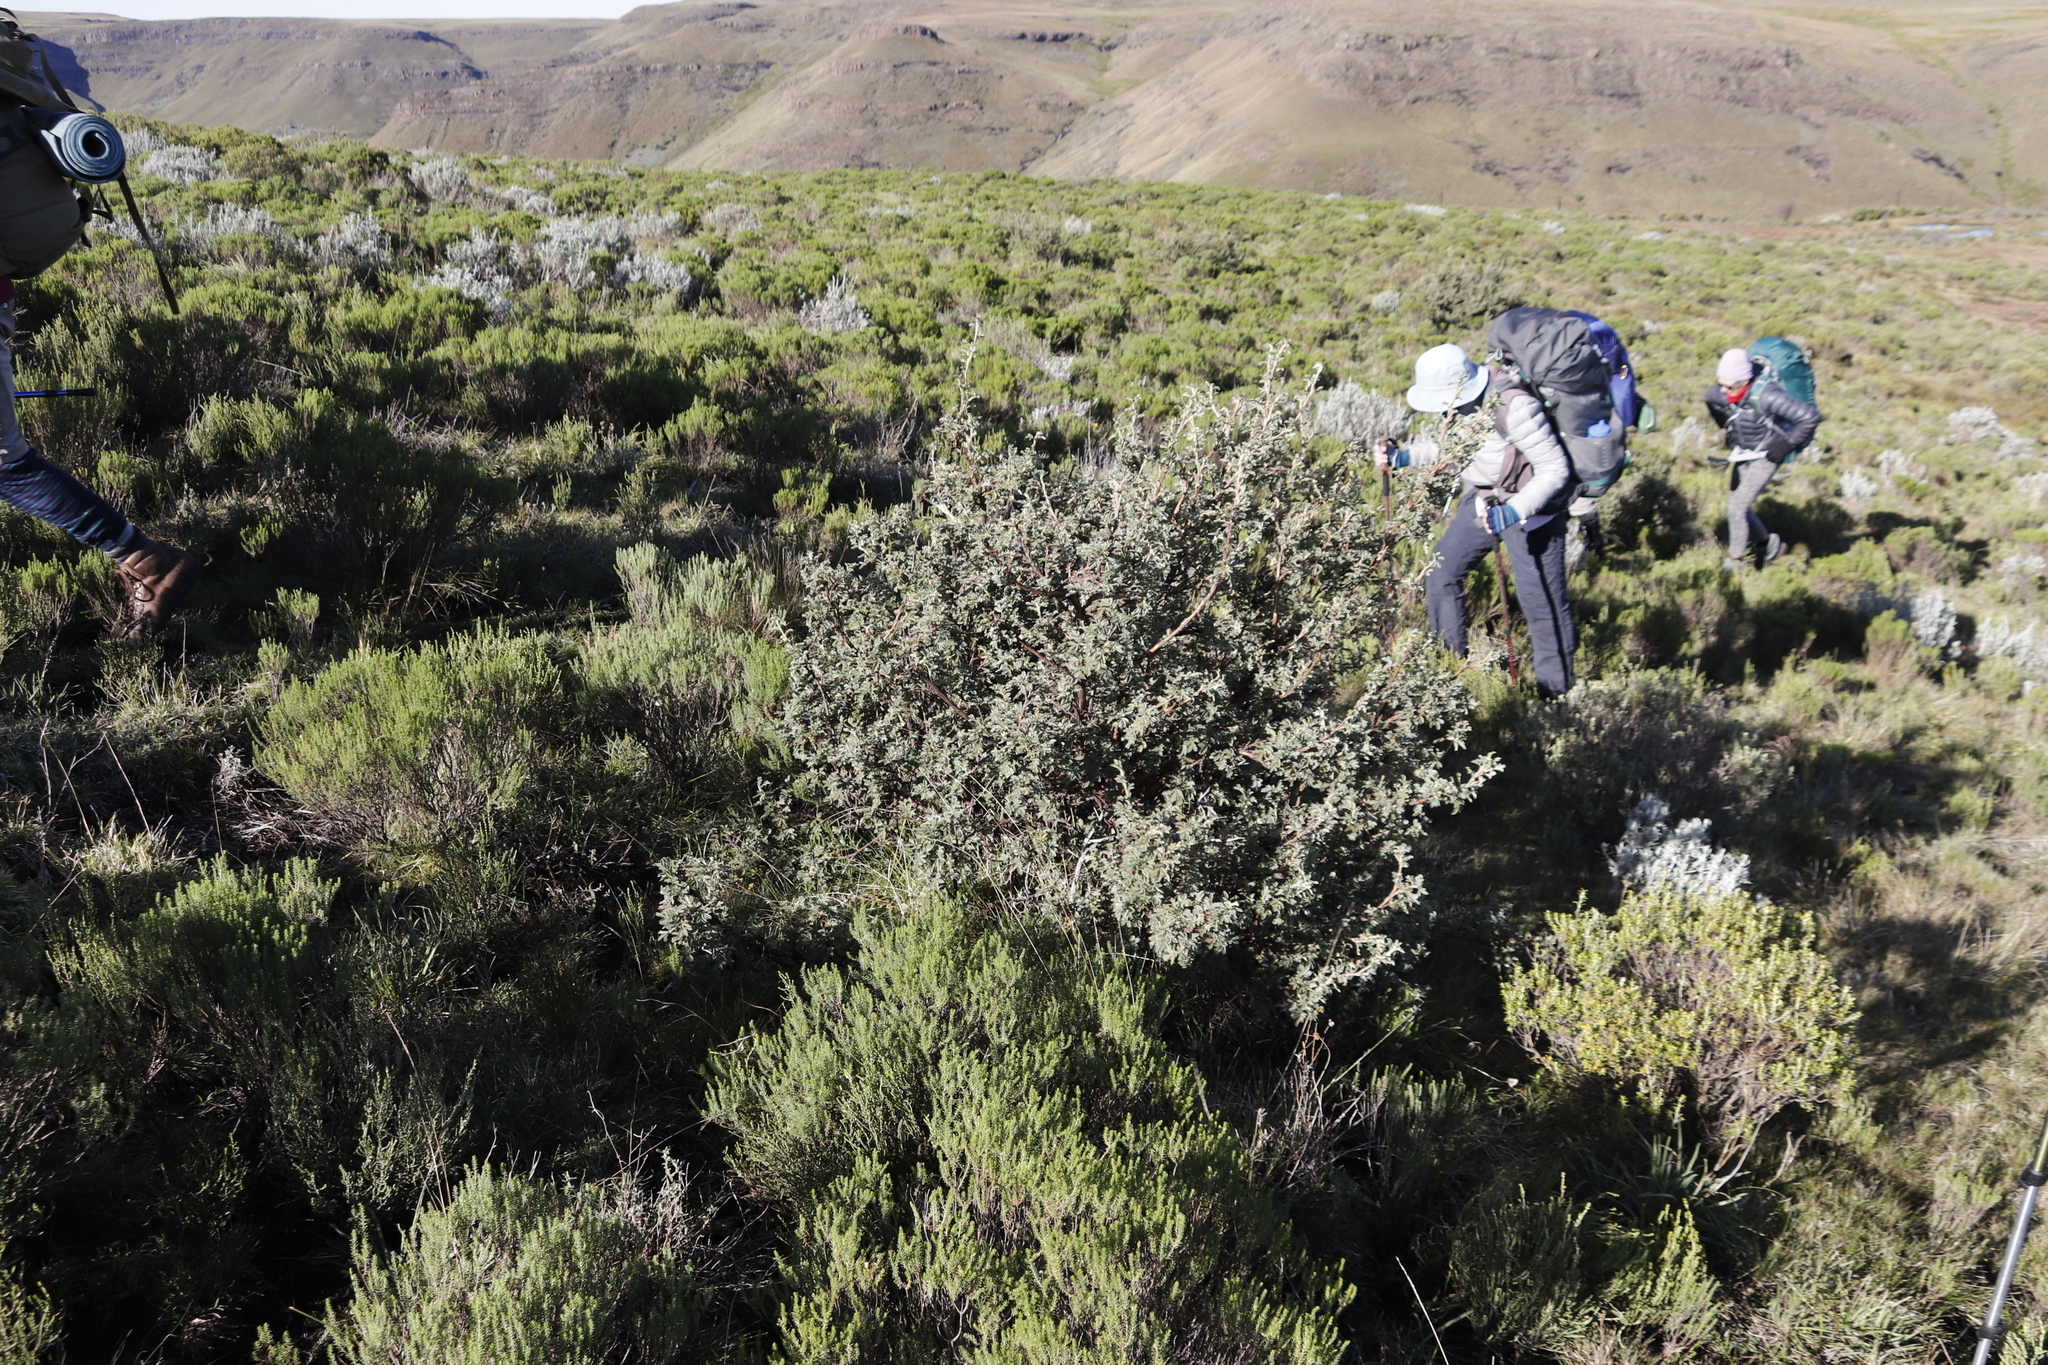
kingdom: Plantae
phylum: Tracheophyta
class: Magnoliopsida
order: Rosales
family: Rosaceae
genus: Leucosidea
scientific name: Leucosidea sericea
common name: Oldwood
